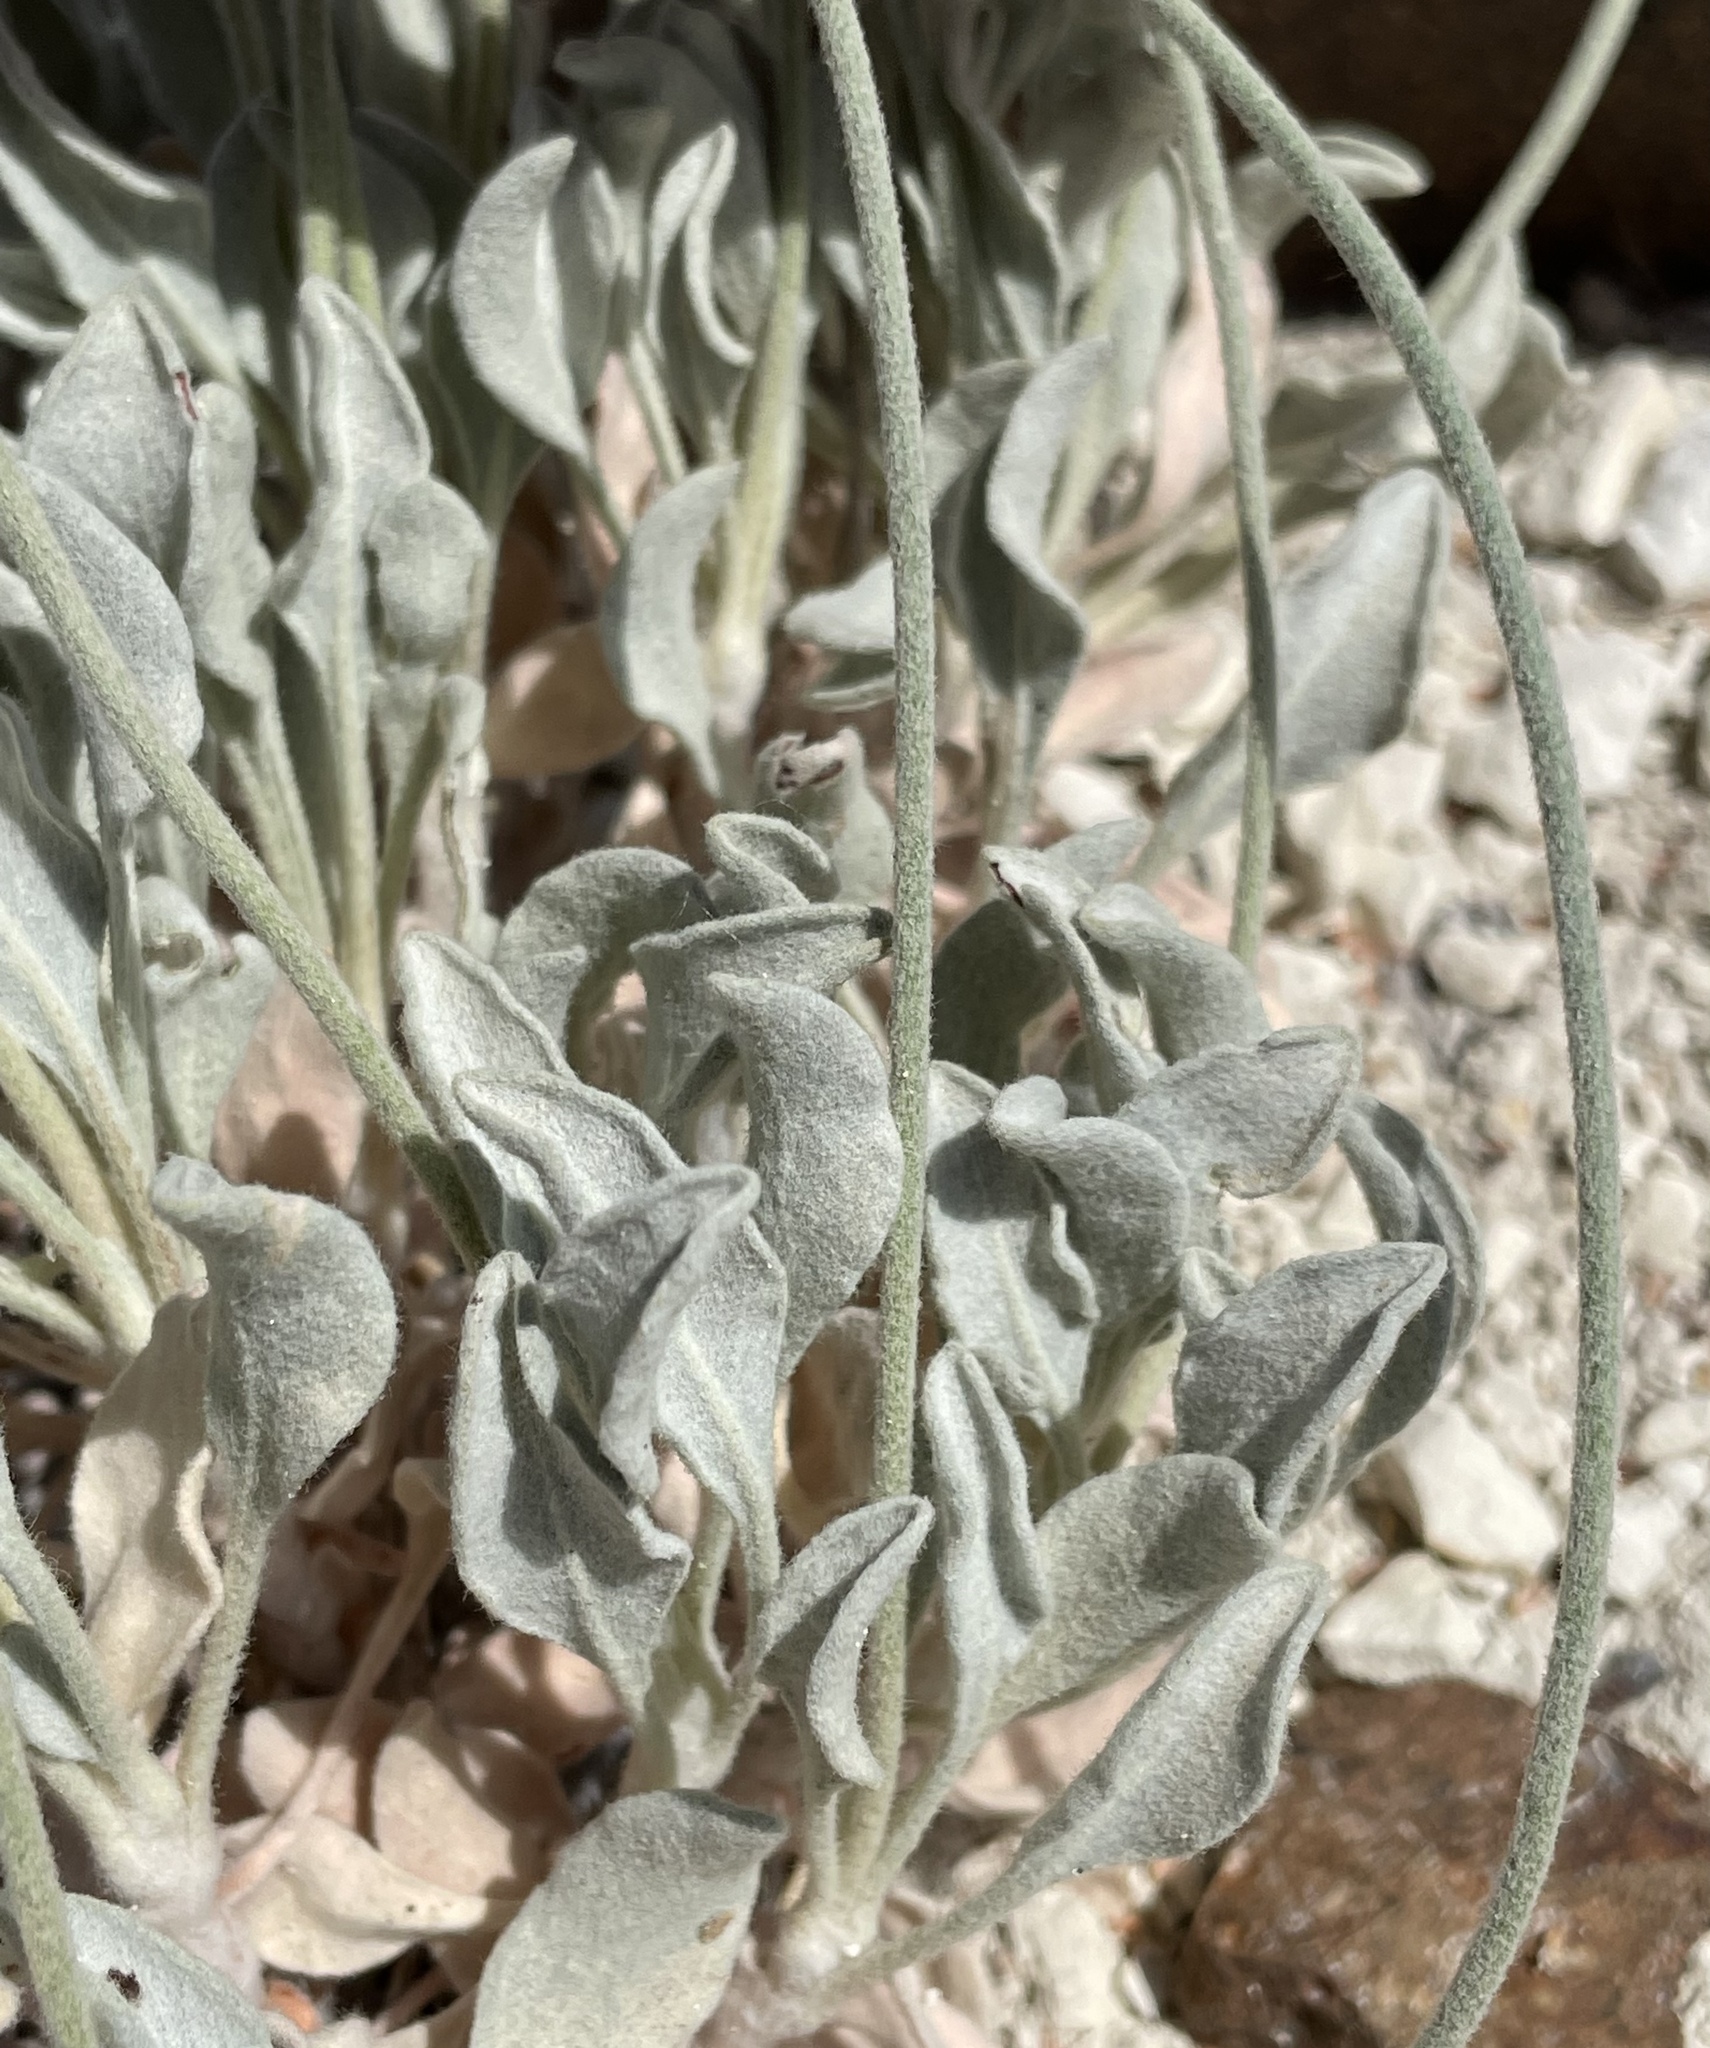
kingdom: Plantae
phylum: Tracheophyta
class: Magnoliopsida
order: Caryophyllales
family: Polygonaceae
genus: Eriogonum
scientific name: Eriogonum diatomaceum
